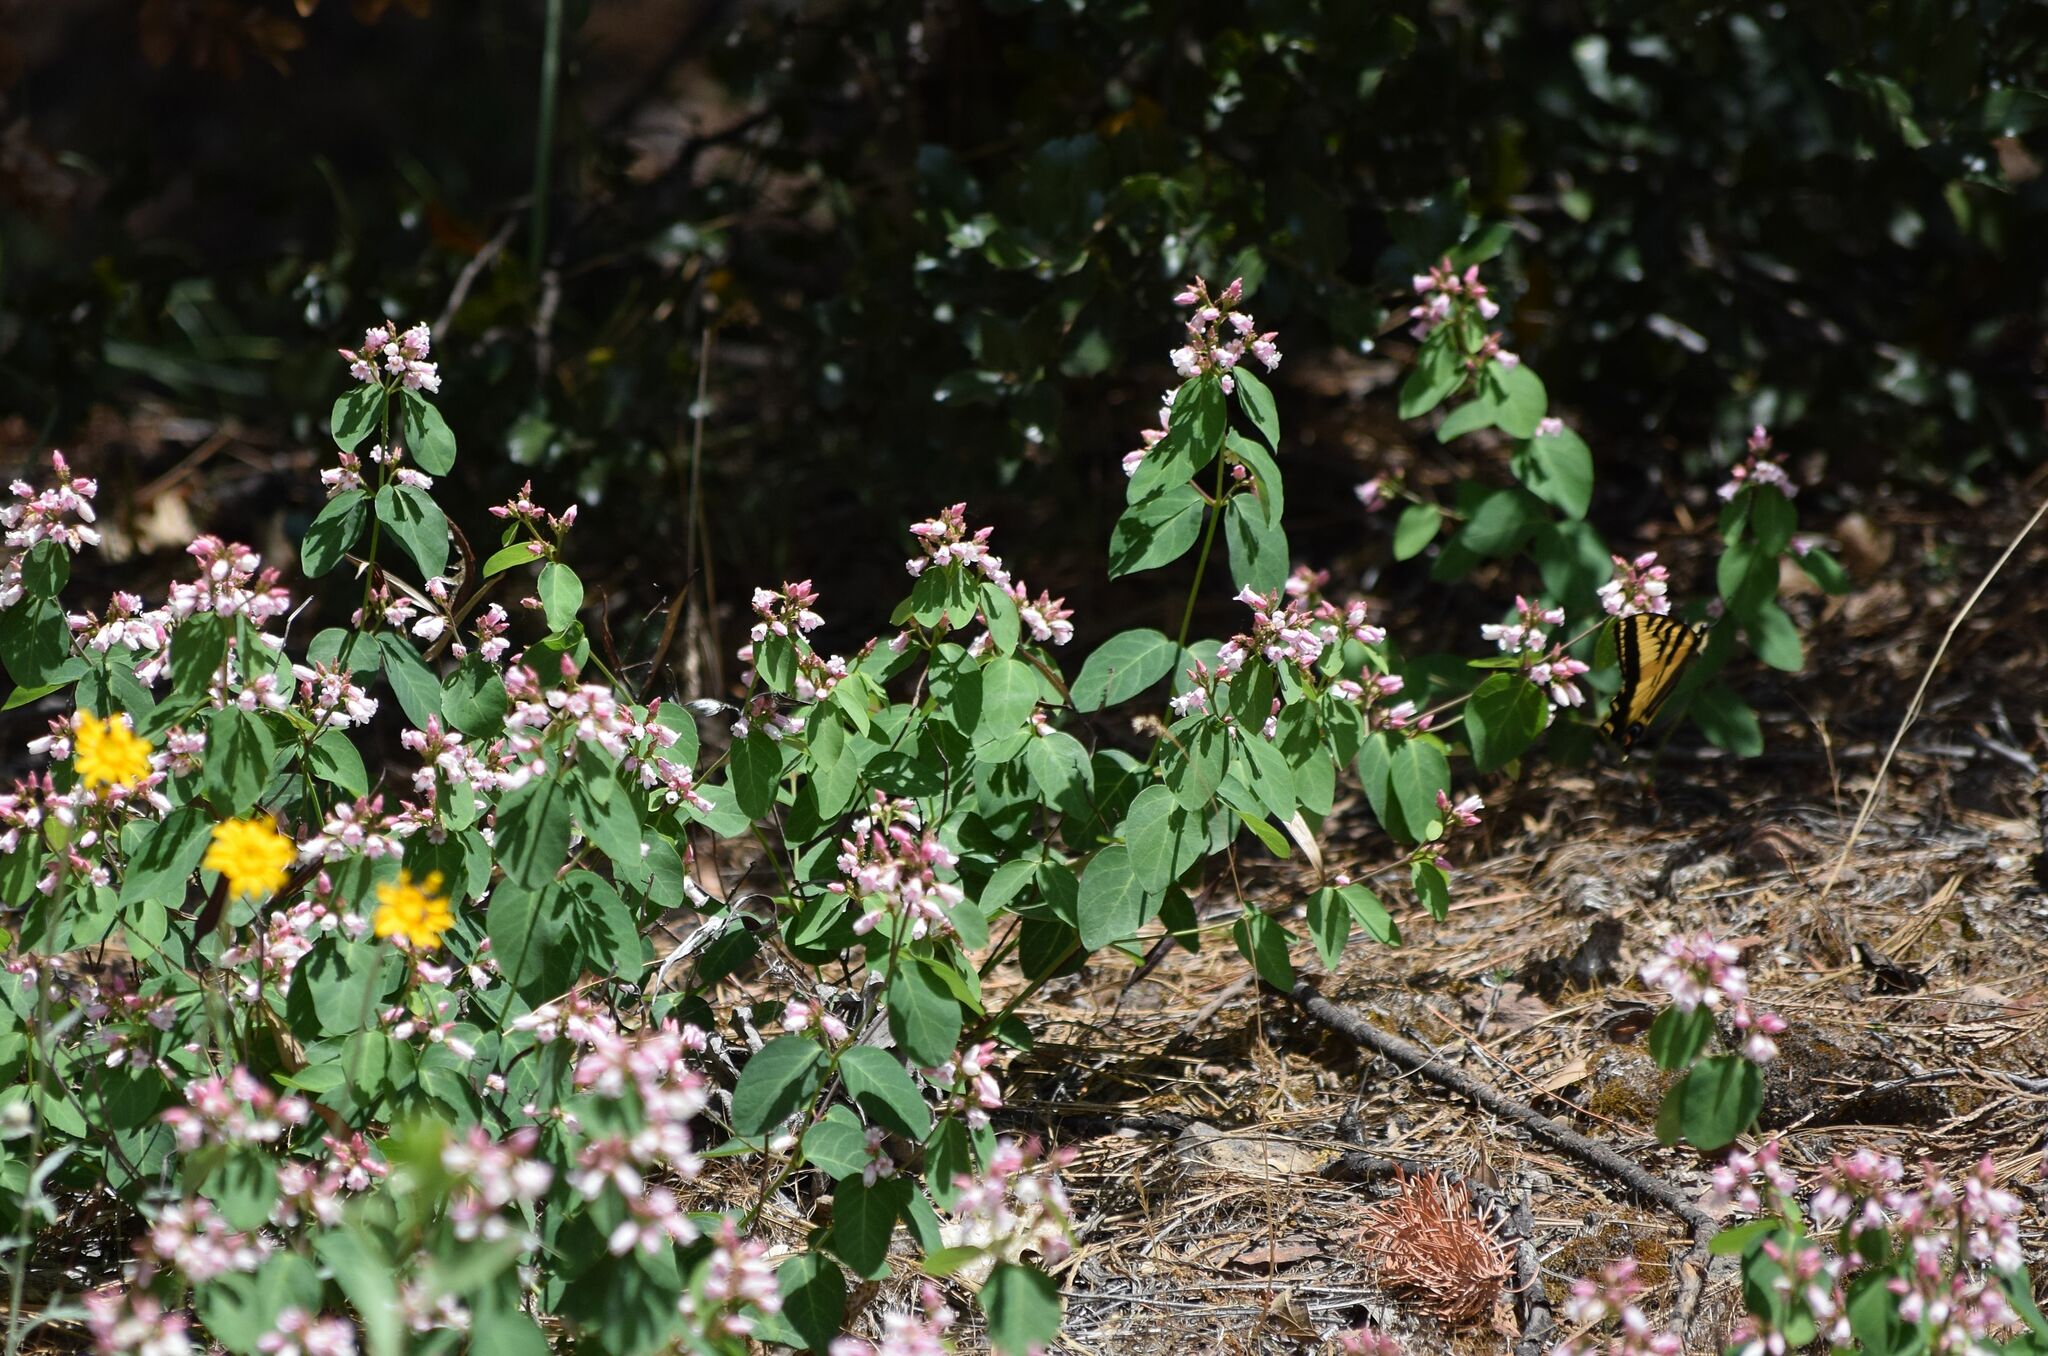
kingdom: Plantae
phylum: Tracheophyta
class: Magnoliopsida
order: Gentianales
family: Apocynaceae
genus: Apocynum
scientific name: Apocynum androsaemifolium
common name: Spreading dogbane
